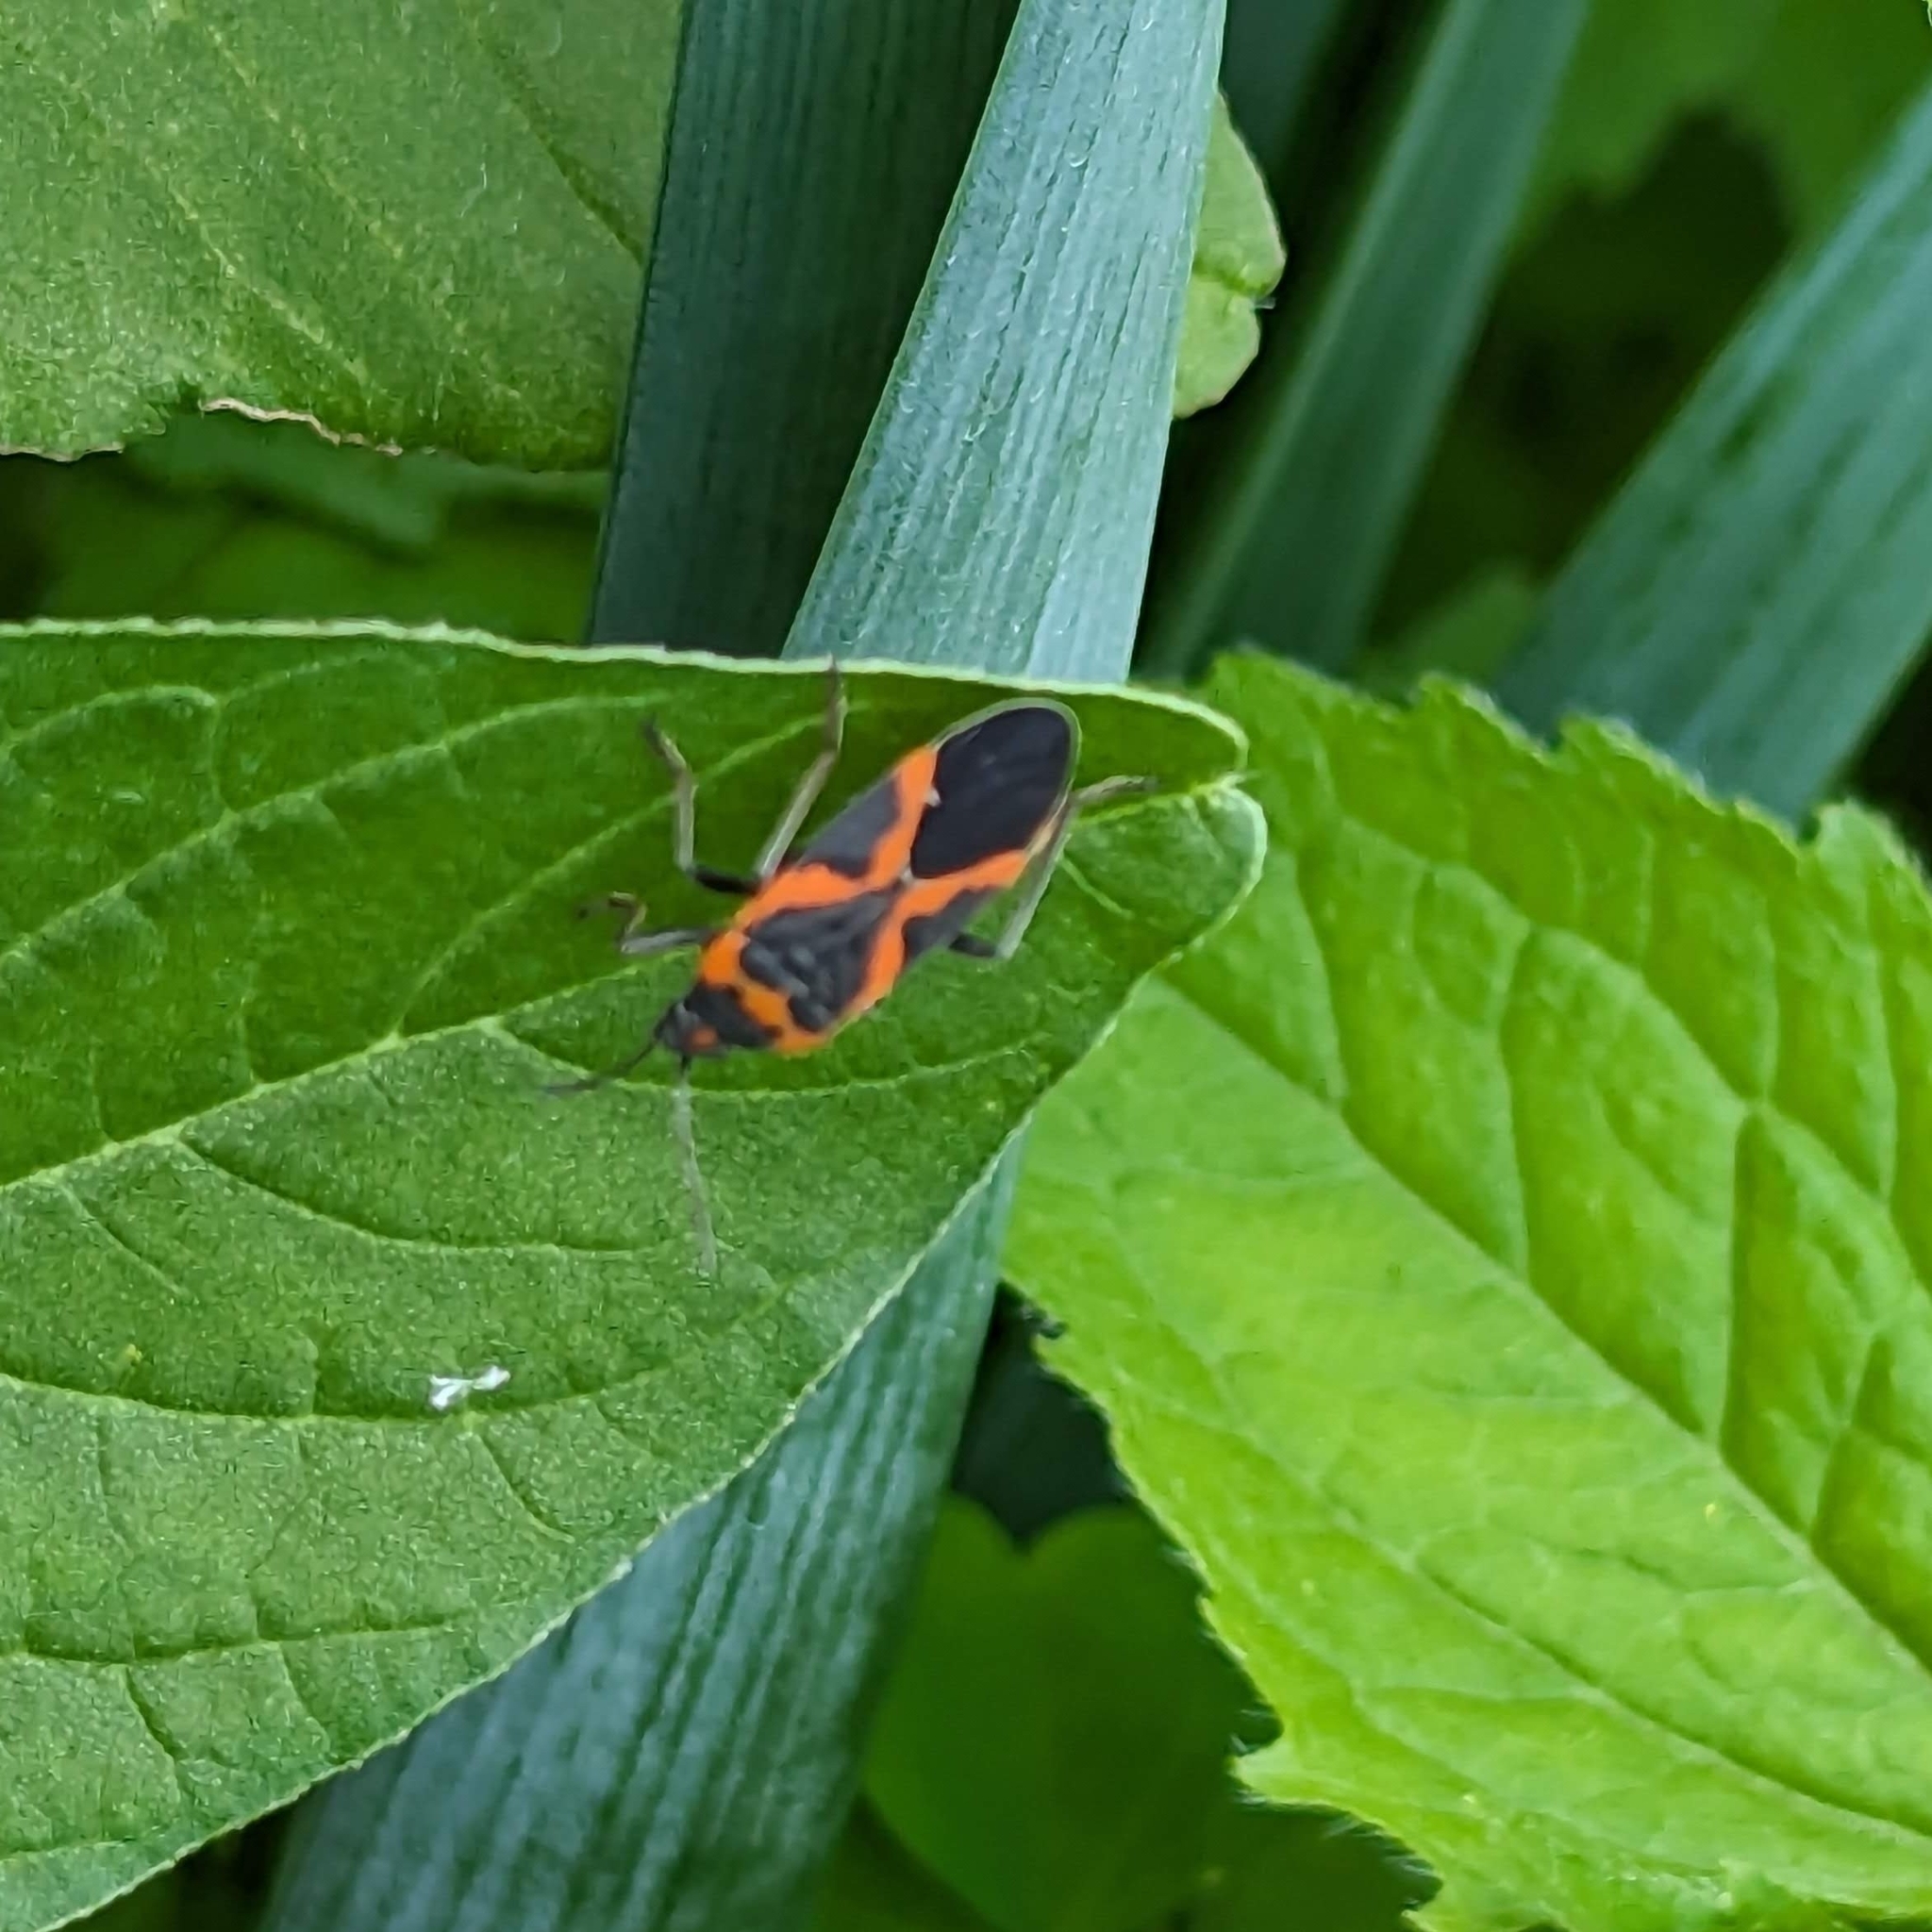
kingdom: Animalia
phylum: Arthropoda
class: Insecta
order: Hemiptera
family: Lygaeidae
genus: Lygaeus
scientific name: Lygaeus kalmii
